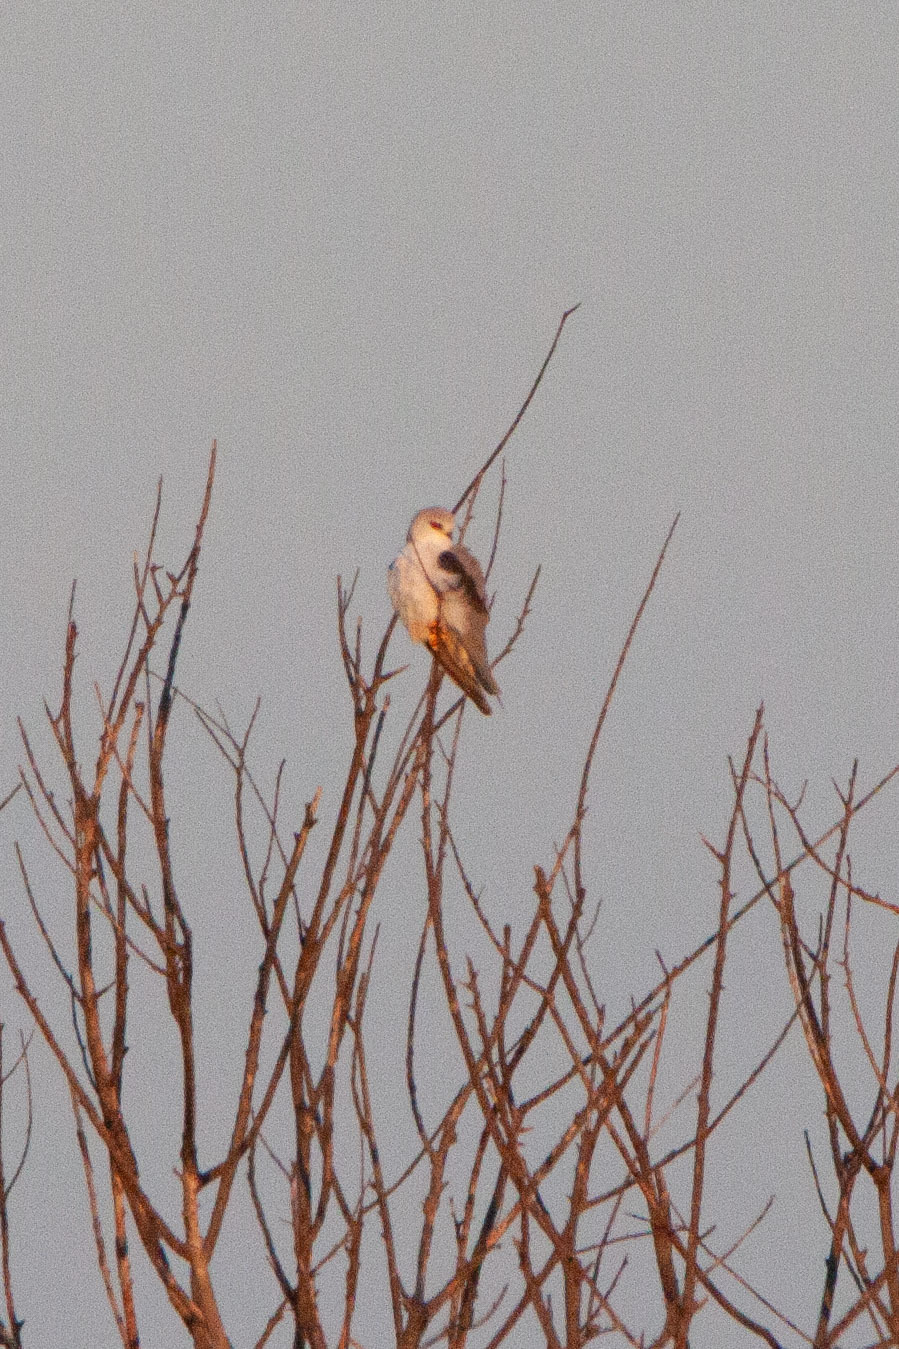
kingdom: Animalia
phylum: Chordata
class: Aves
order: Accipitriformes
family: Accipitridae
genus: Elanus
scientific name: Elanus caeruleus
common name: Black-winged kite
